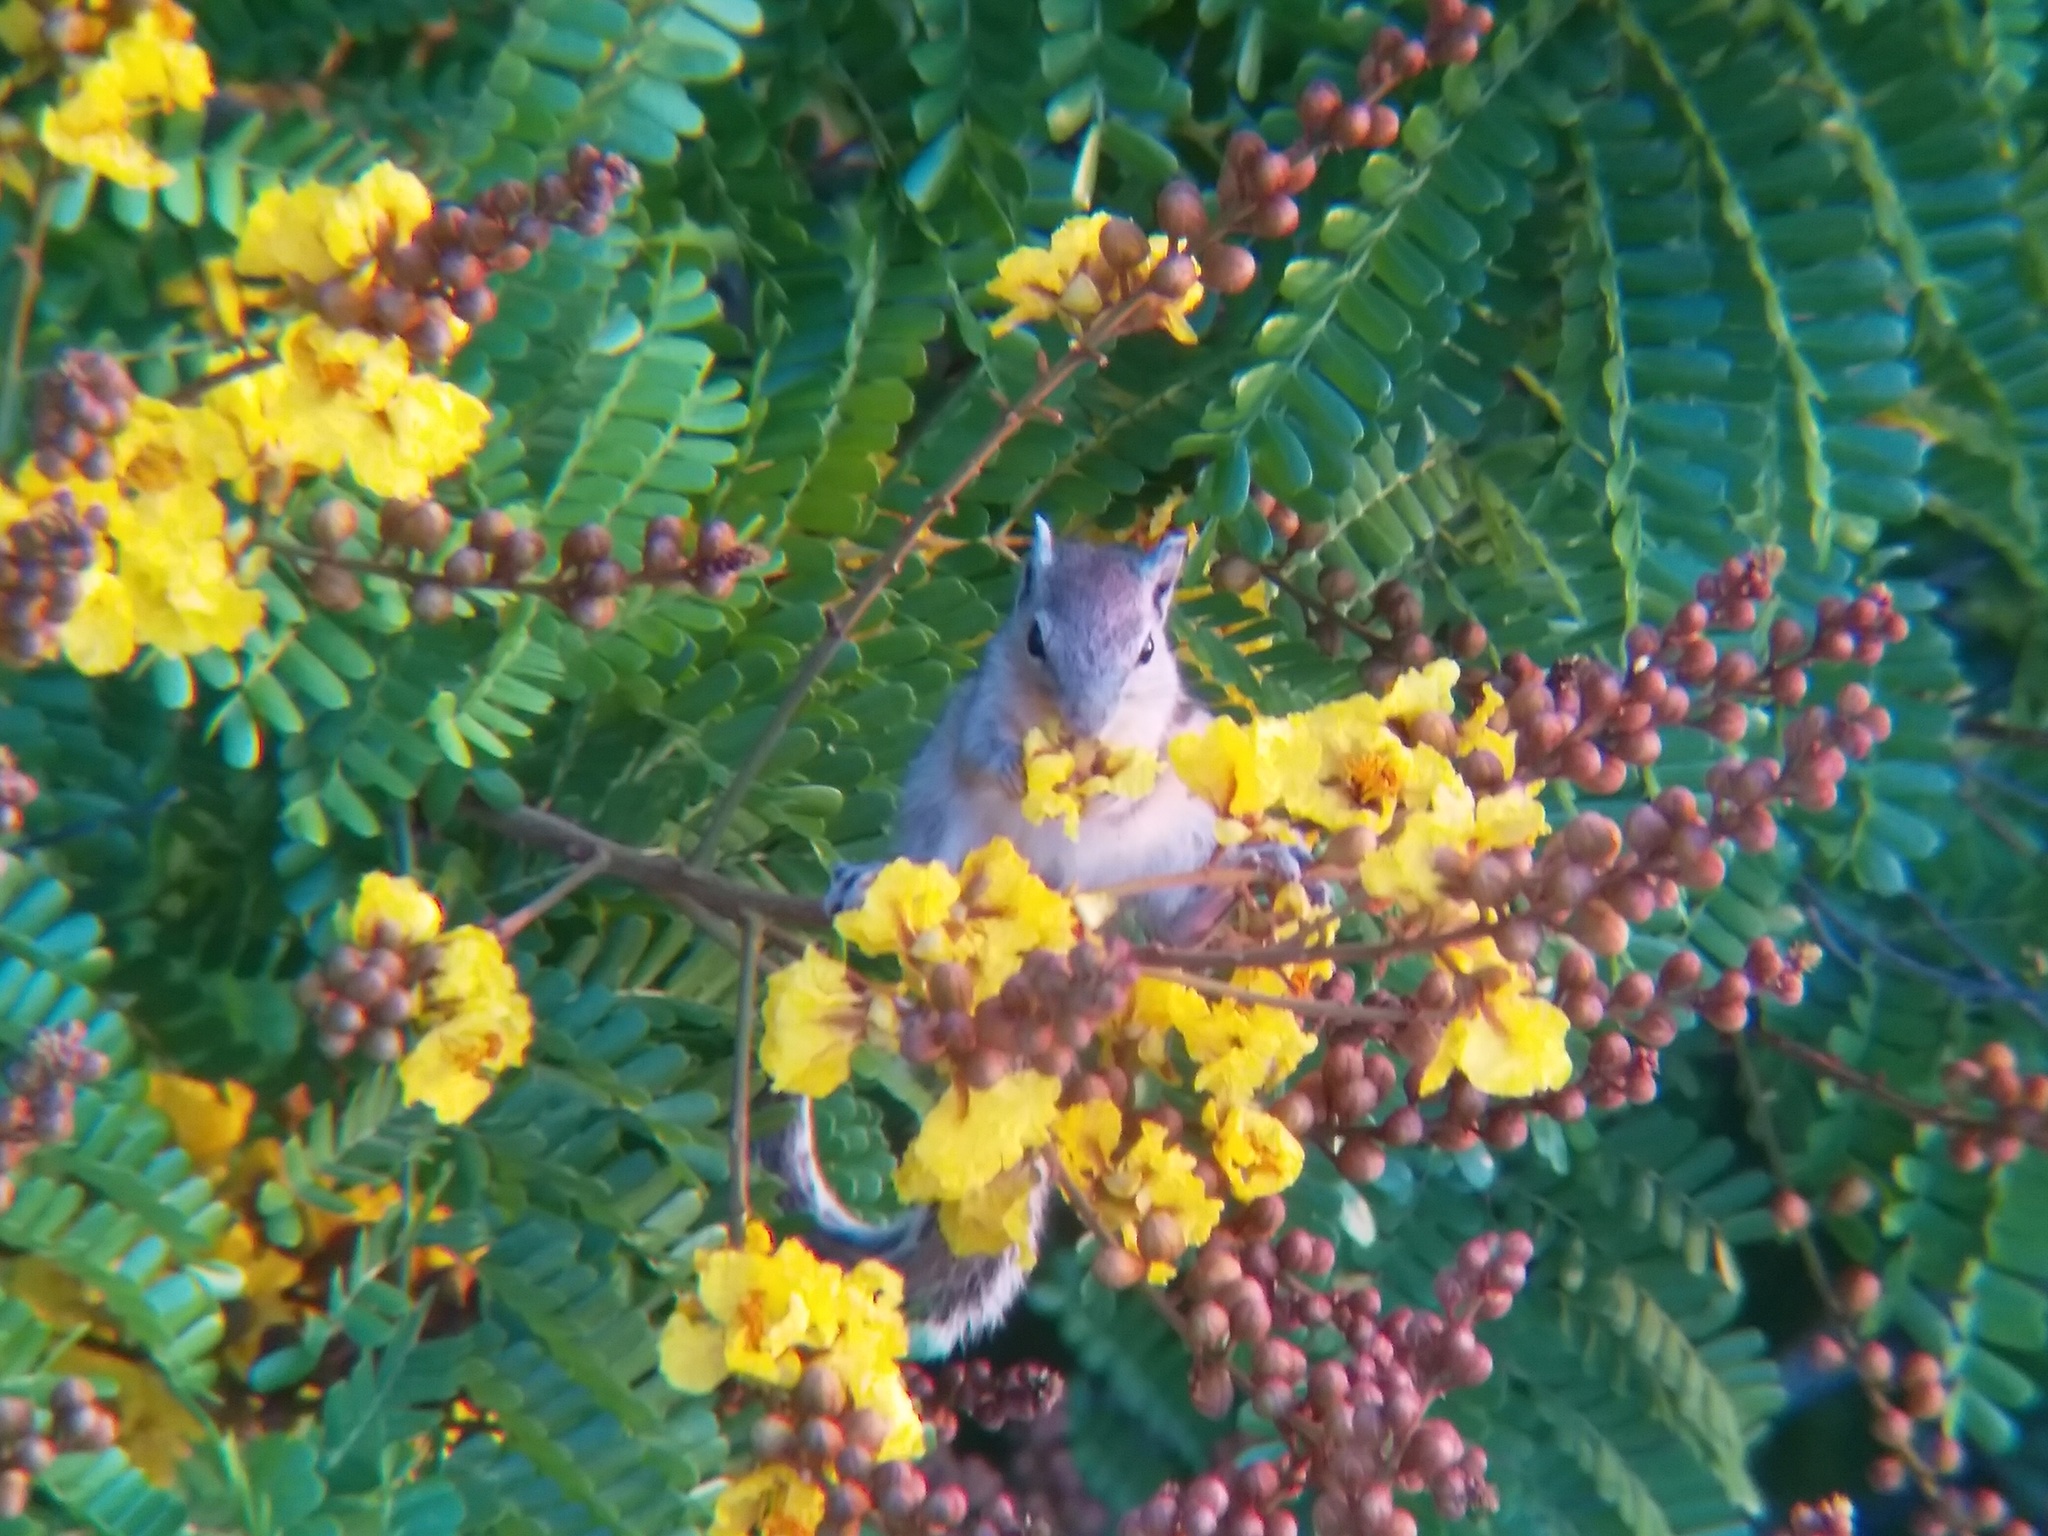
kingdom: Animalia
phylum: Chordata
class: Mammalia
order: Rodentia
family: Sciuridae
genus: Funambulus
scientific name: Funambulus palmarum
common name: Indian palm squirrel
